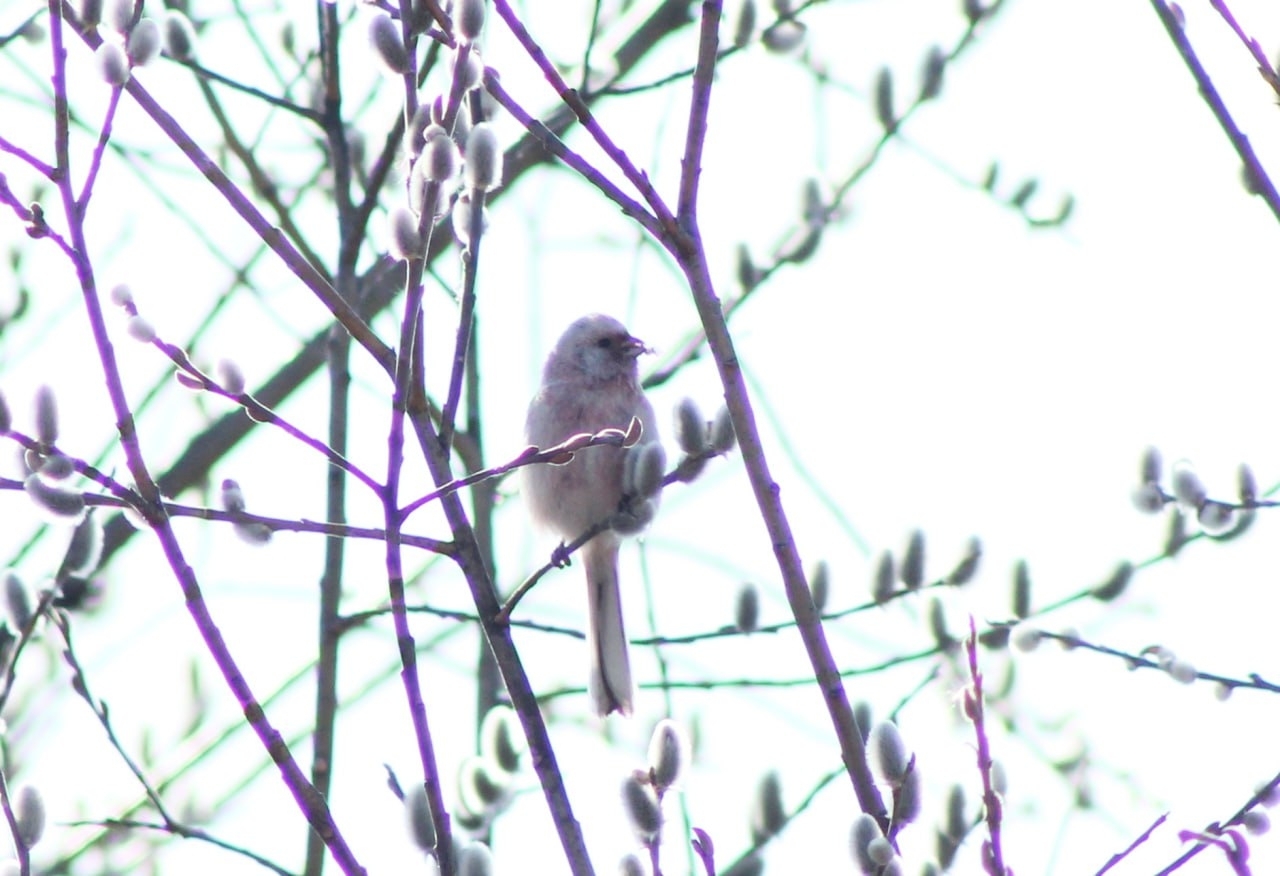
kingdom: Animalia
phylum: Chordata
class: Aves
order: Passeriformes
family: Fringillidae
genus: Carpodacus
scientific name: Carpodacus sibiricus
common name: Long-tailed rosefinch
